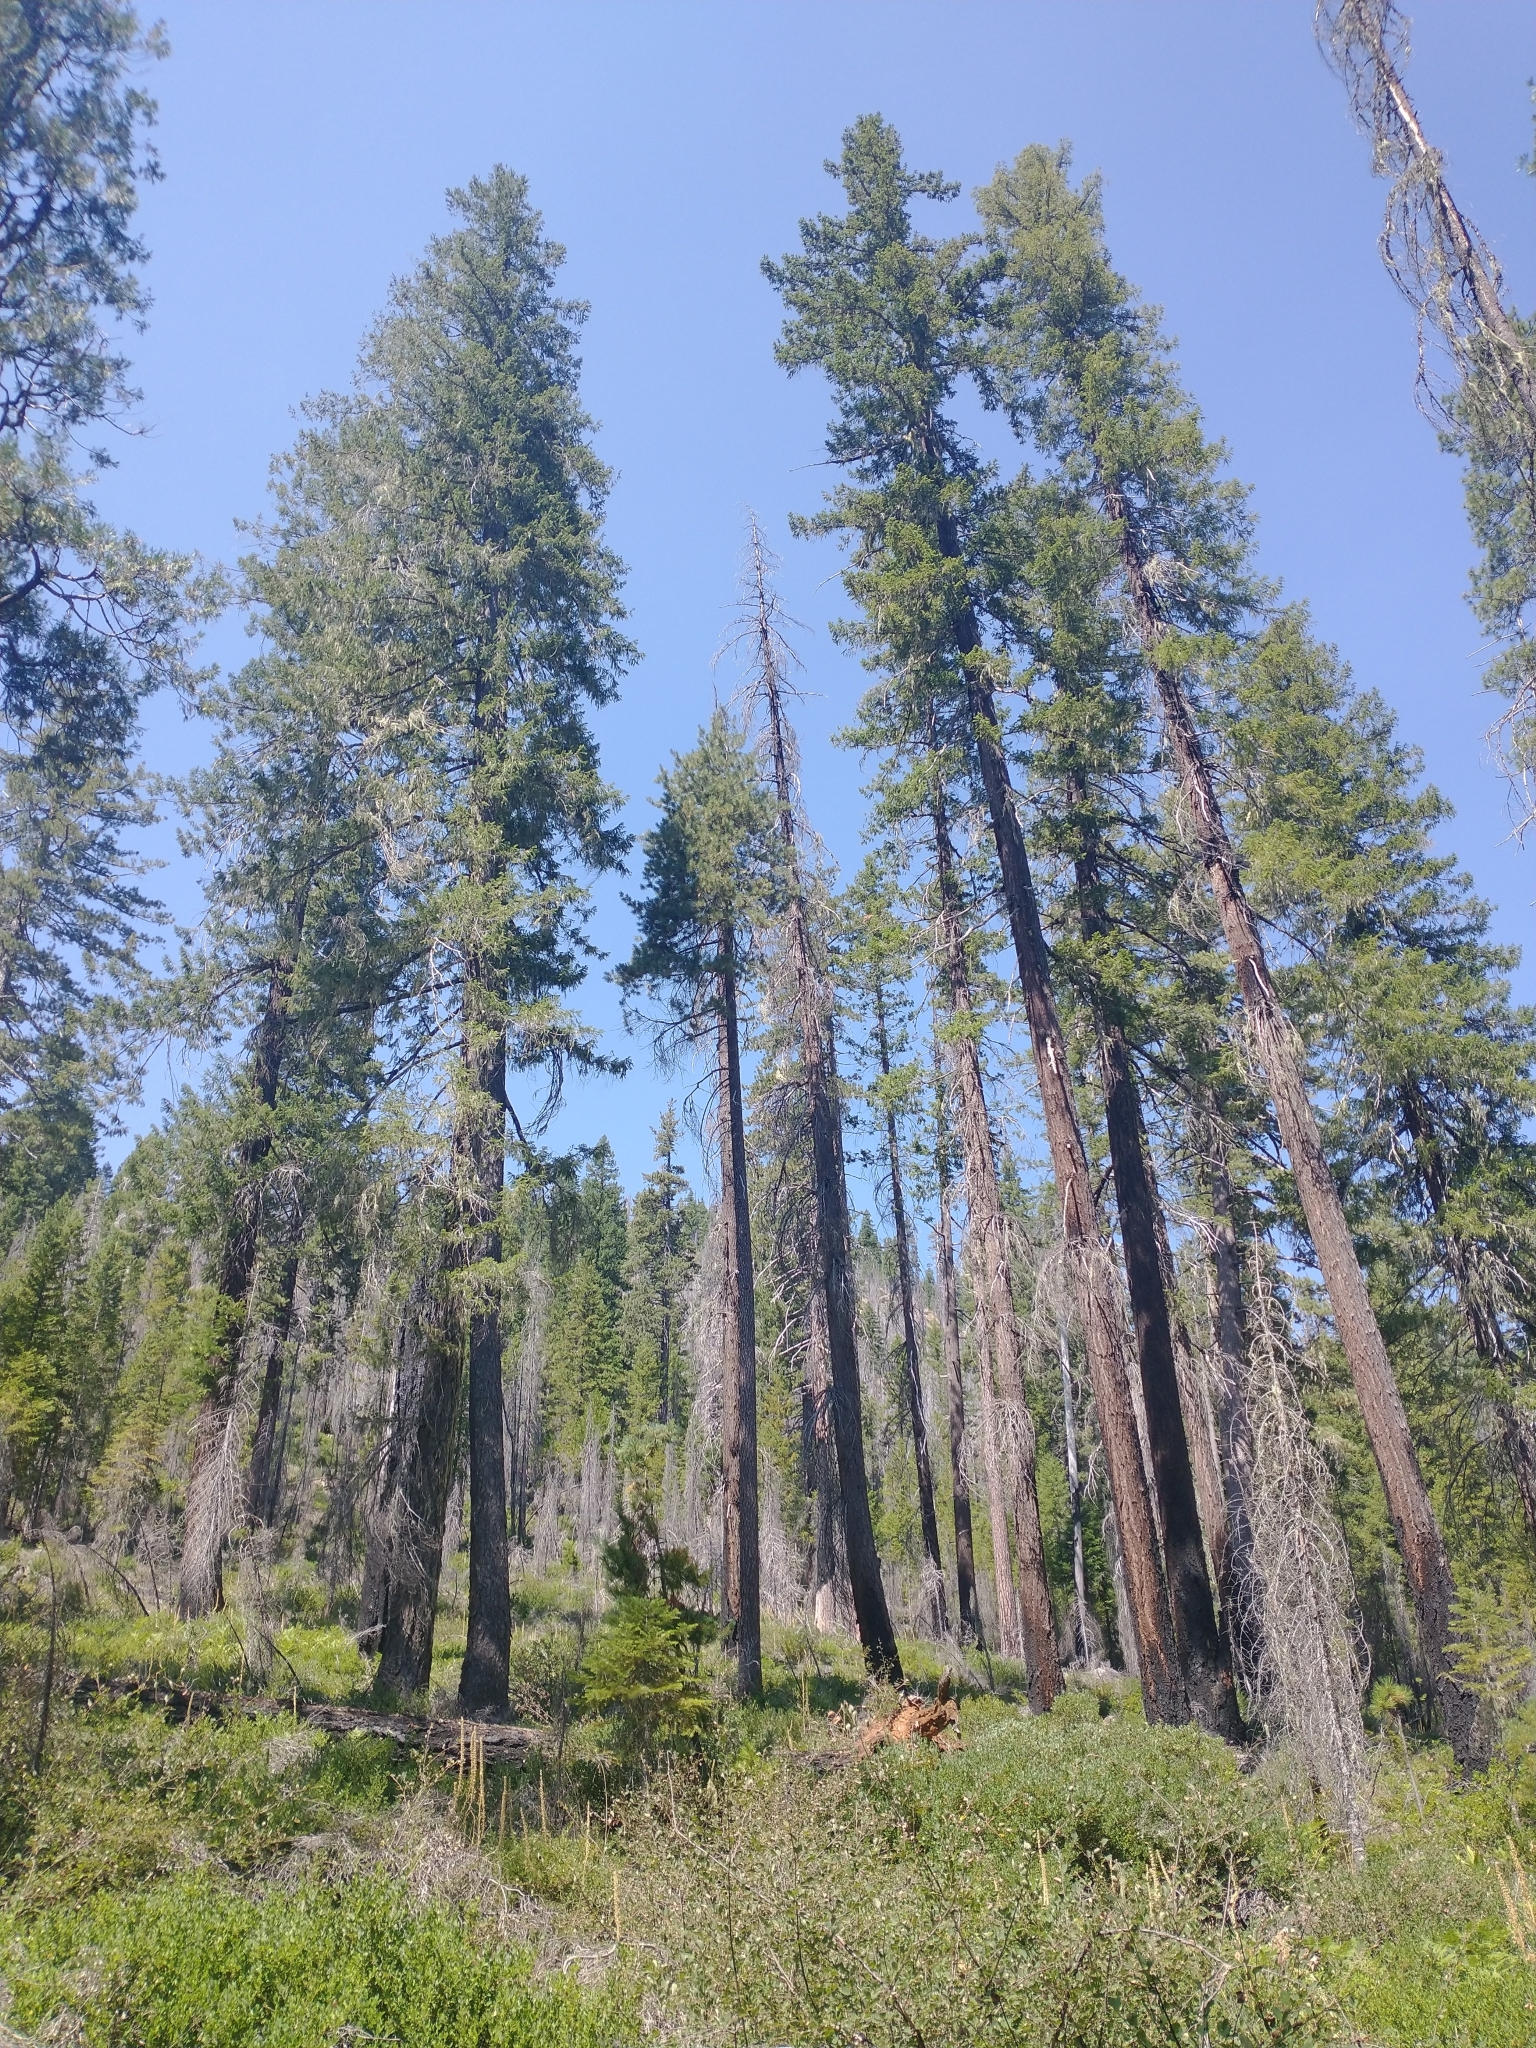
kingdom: Plantae
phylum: Tracheophyta
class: Pinopsida
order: Pinales
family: Pinaceae
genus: Pseudotsuga
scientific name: Pseudotsuga menziesii
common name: Douglas fir
